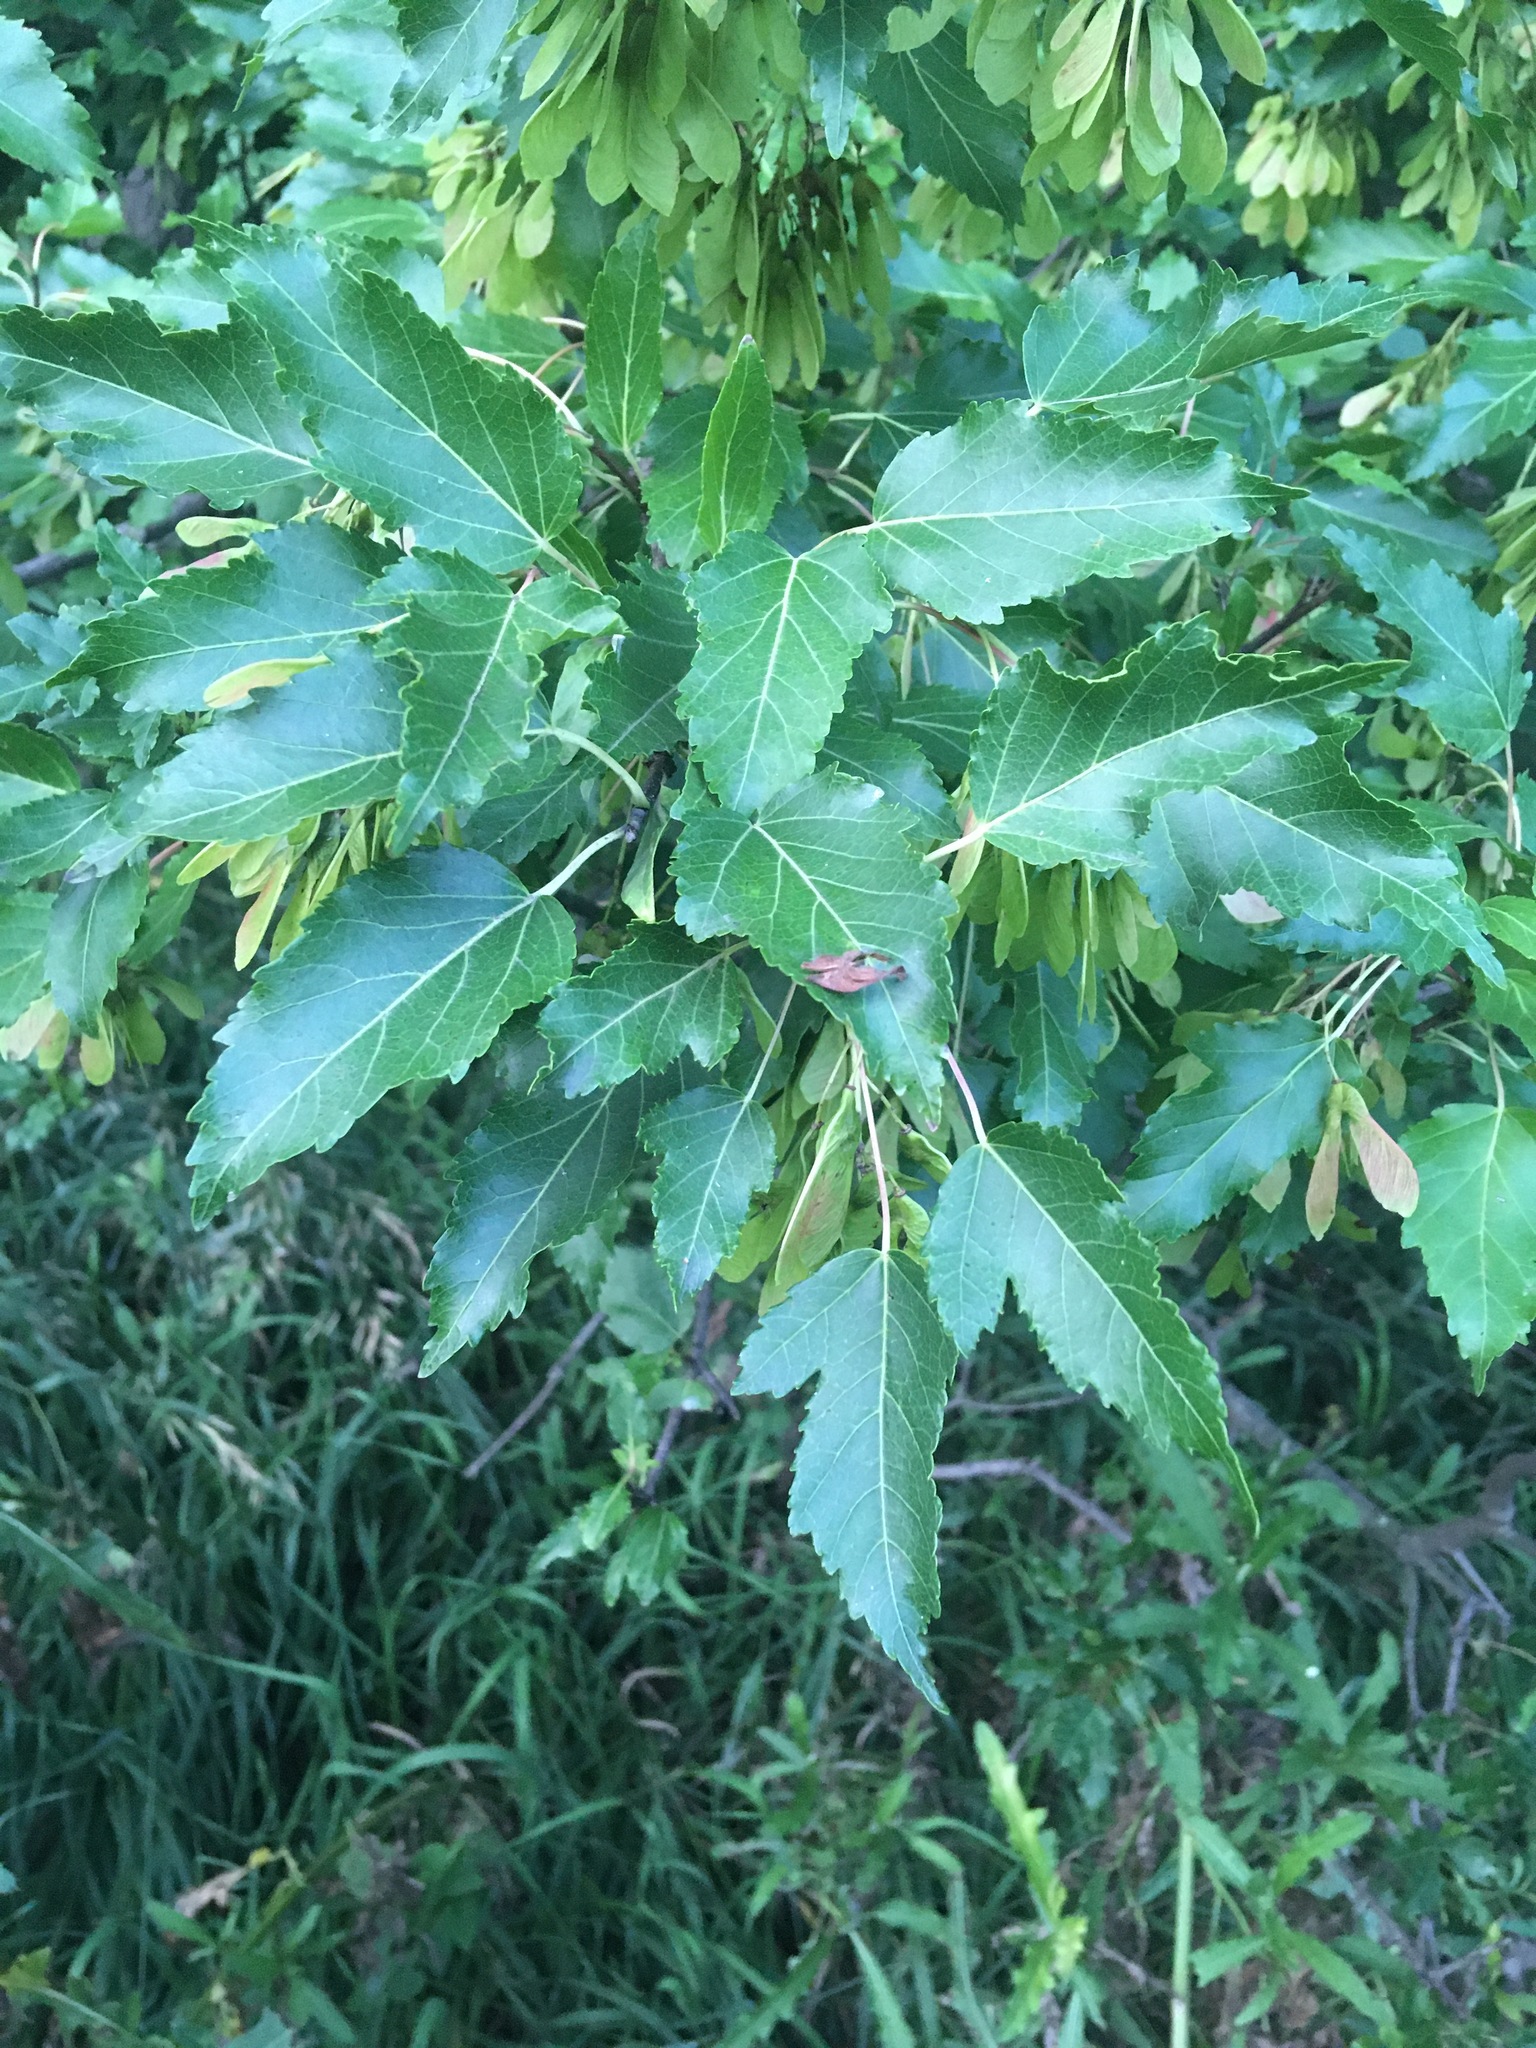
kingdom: Plantae
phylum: Tracheophyta
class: Magnoliopsida
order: Sapindales
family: Sapindaceae
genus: Acer
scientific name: Acer tataricum
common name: Tartar maple
